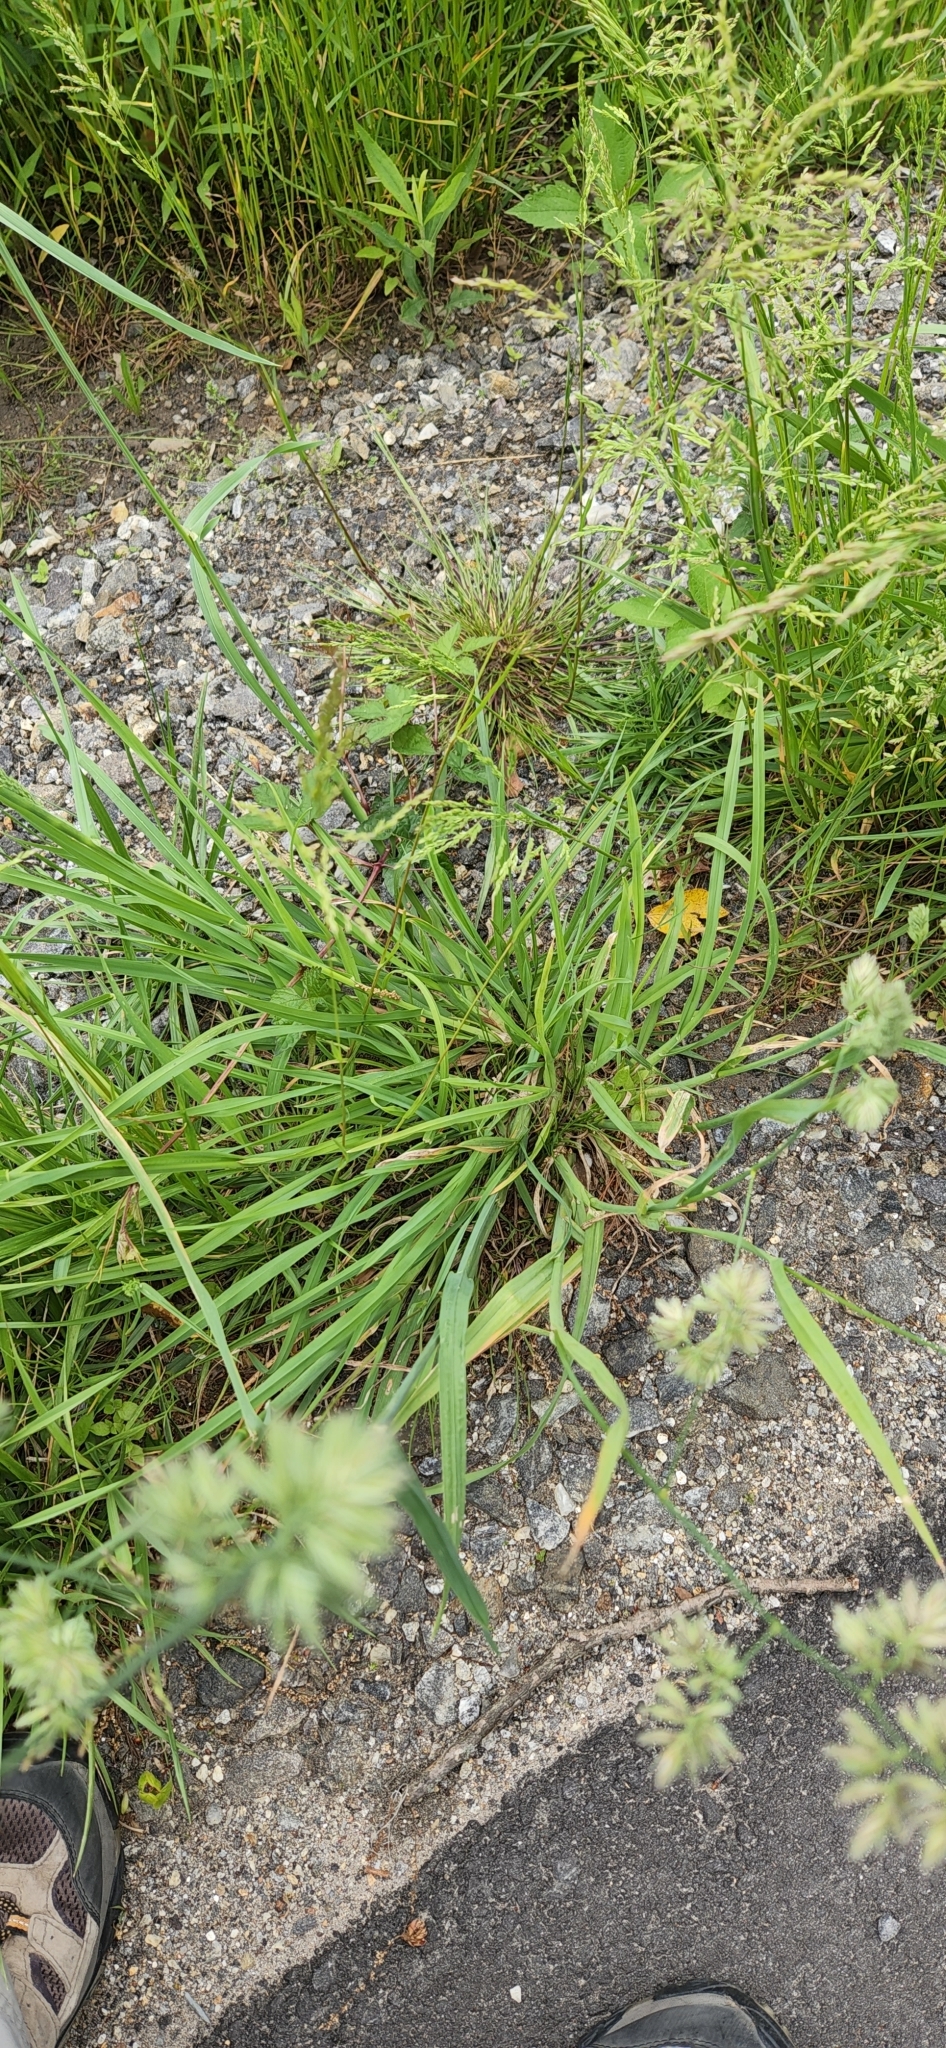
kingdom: Plantae
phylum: Tracheophyta
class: Liliopsida
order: Poales
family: Poaceae
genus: Dactylis
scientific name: Dactylis glomerata
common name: Orchardgrass
